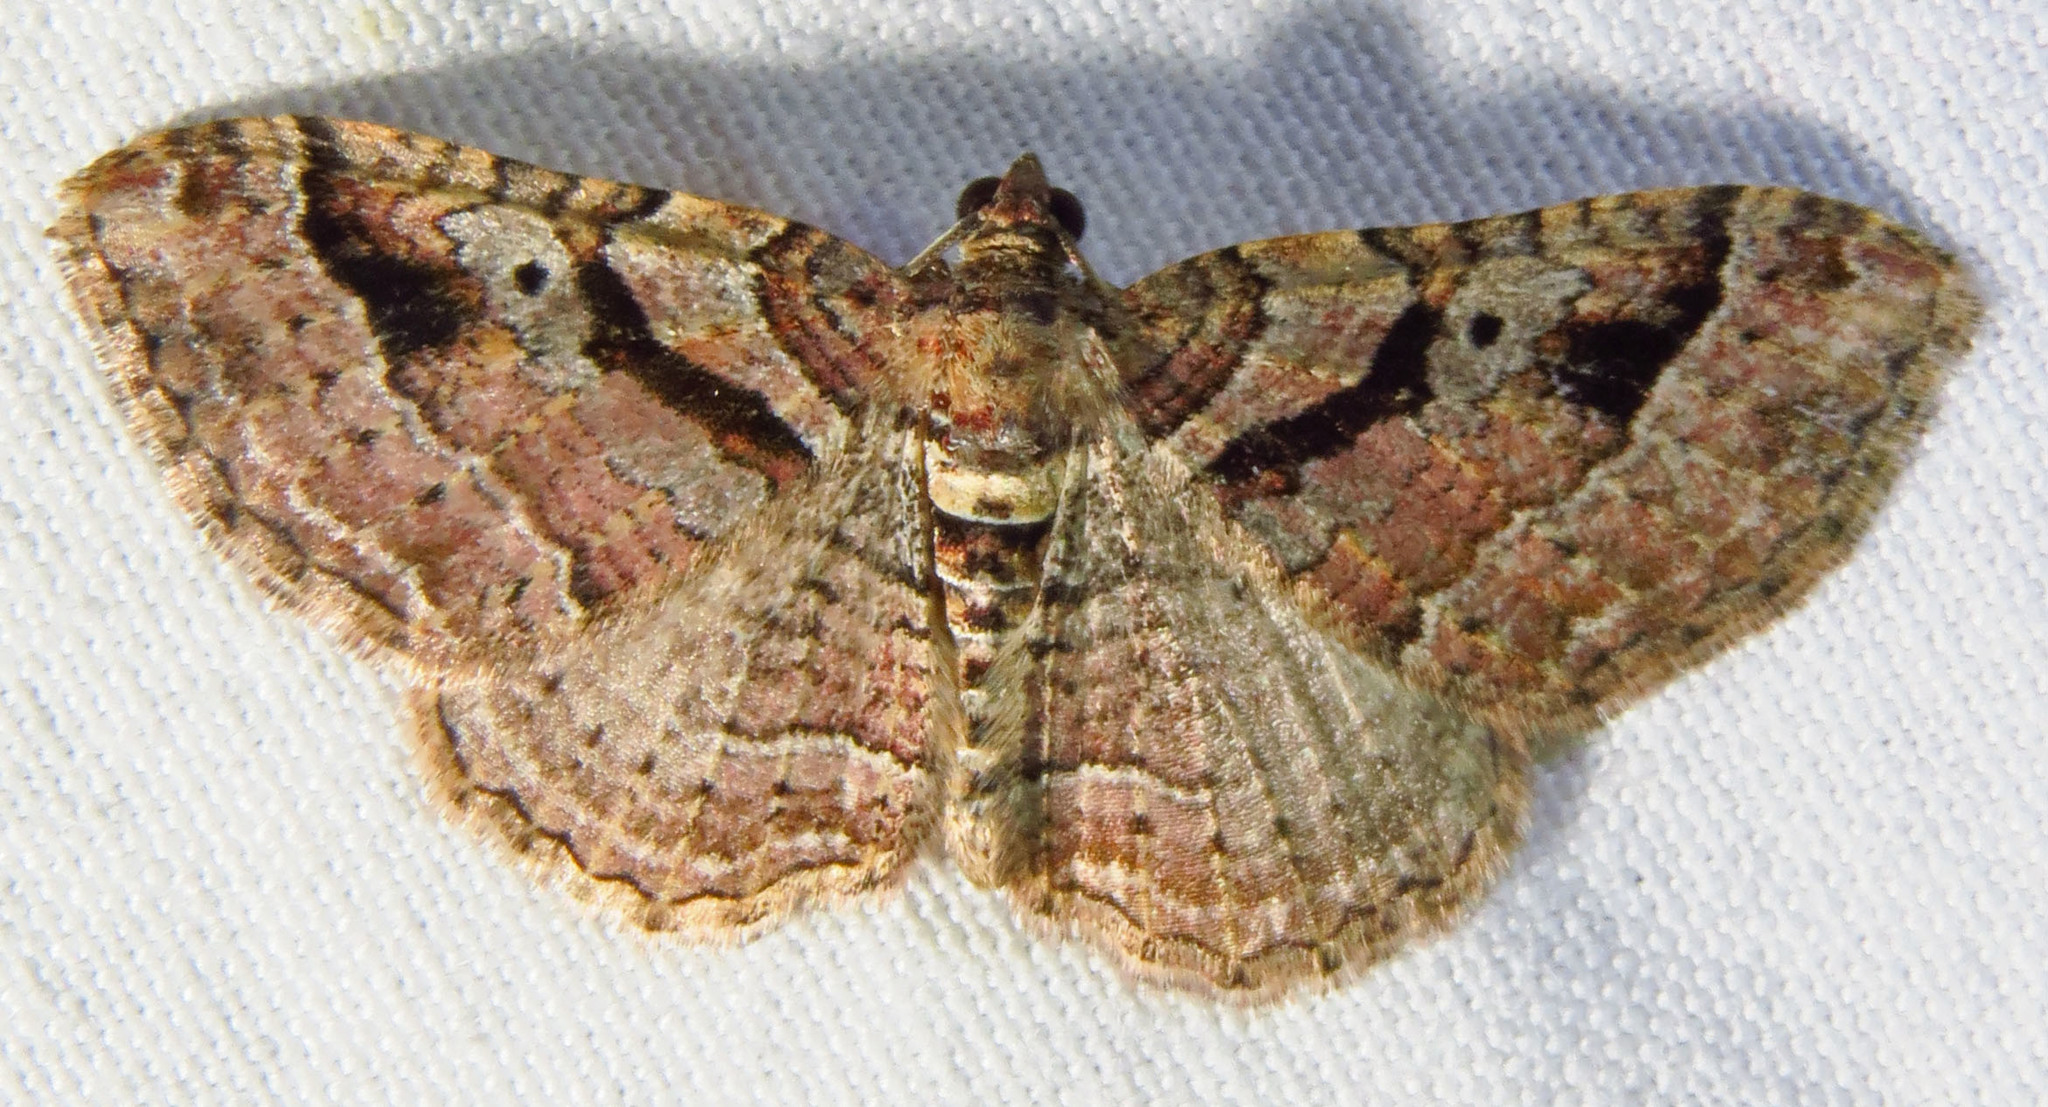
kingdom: Animalia
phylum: Arthropoda
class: Insecta
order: Lepidoptera
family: Geometridae
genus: Costaconvexa
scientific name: Costaconvexa centrostrigaria
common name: Bent-line carpet
